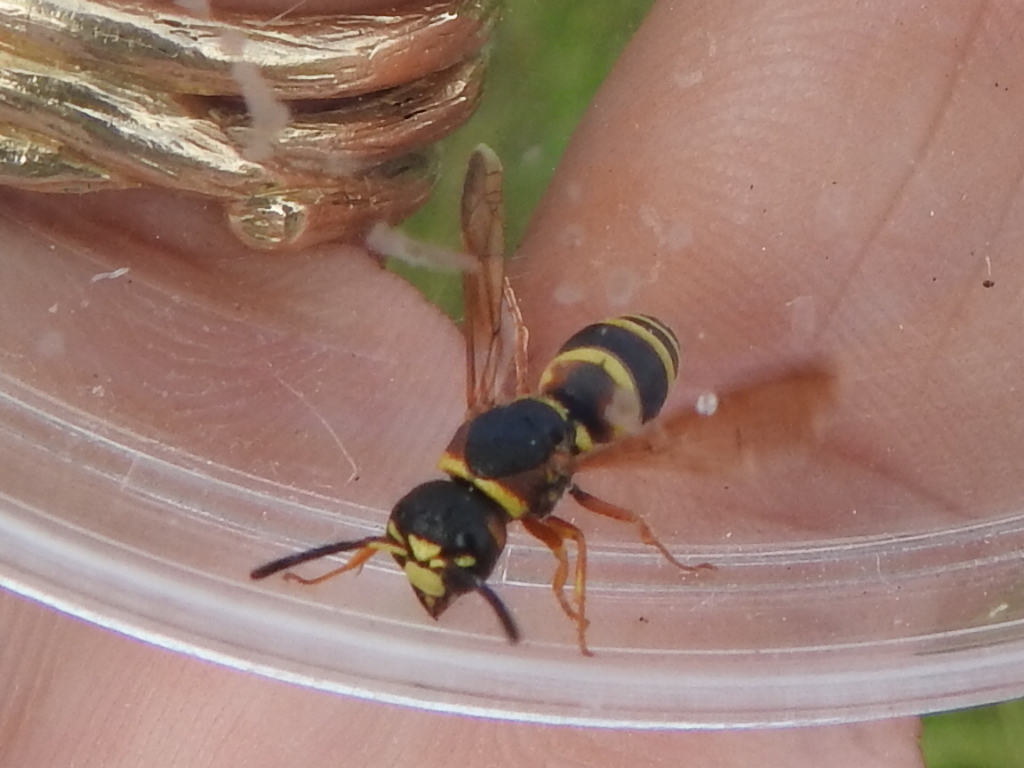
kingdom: Animalia
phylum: Arthropoda
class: Insecta
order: Hymenoptera
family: Eumenidae
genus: Euodynerus
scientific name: Euodynerus annulatus
